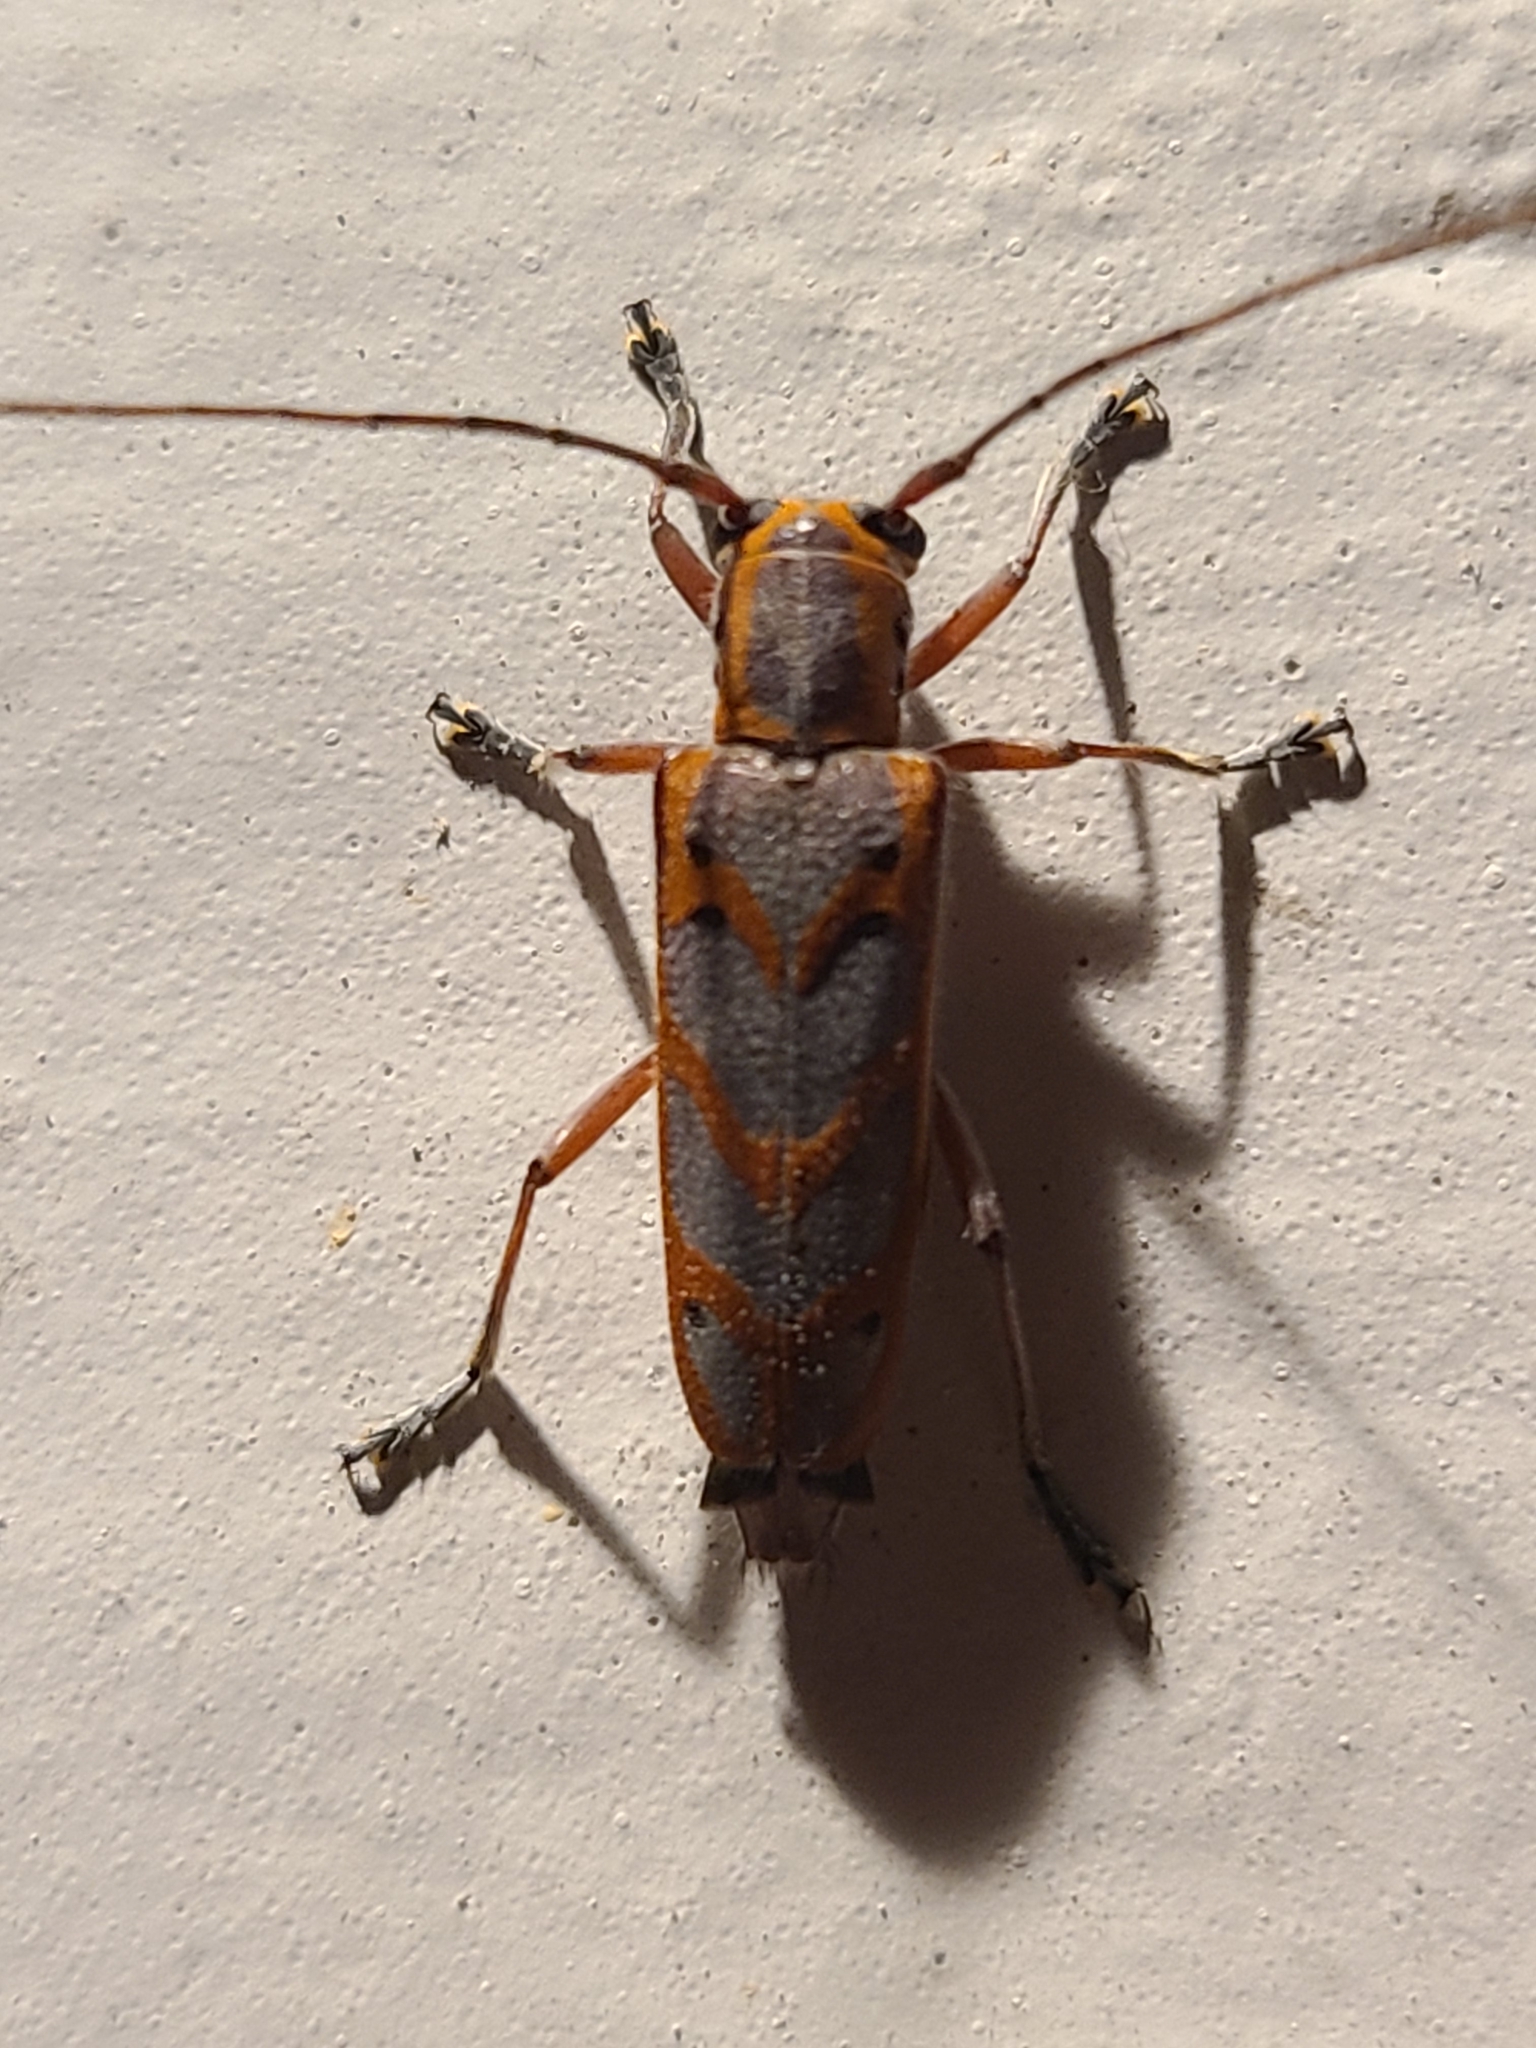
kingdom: Animalia
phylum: Arthropoda
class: Insecta
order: Coleoptera
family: Cerambycidae
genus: Saperda
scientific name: Saperda tridentata
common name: Elm borer
